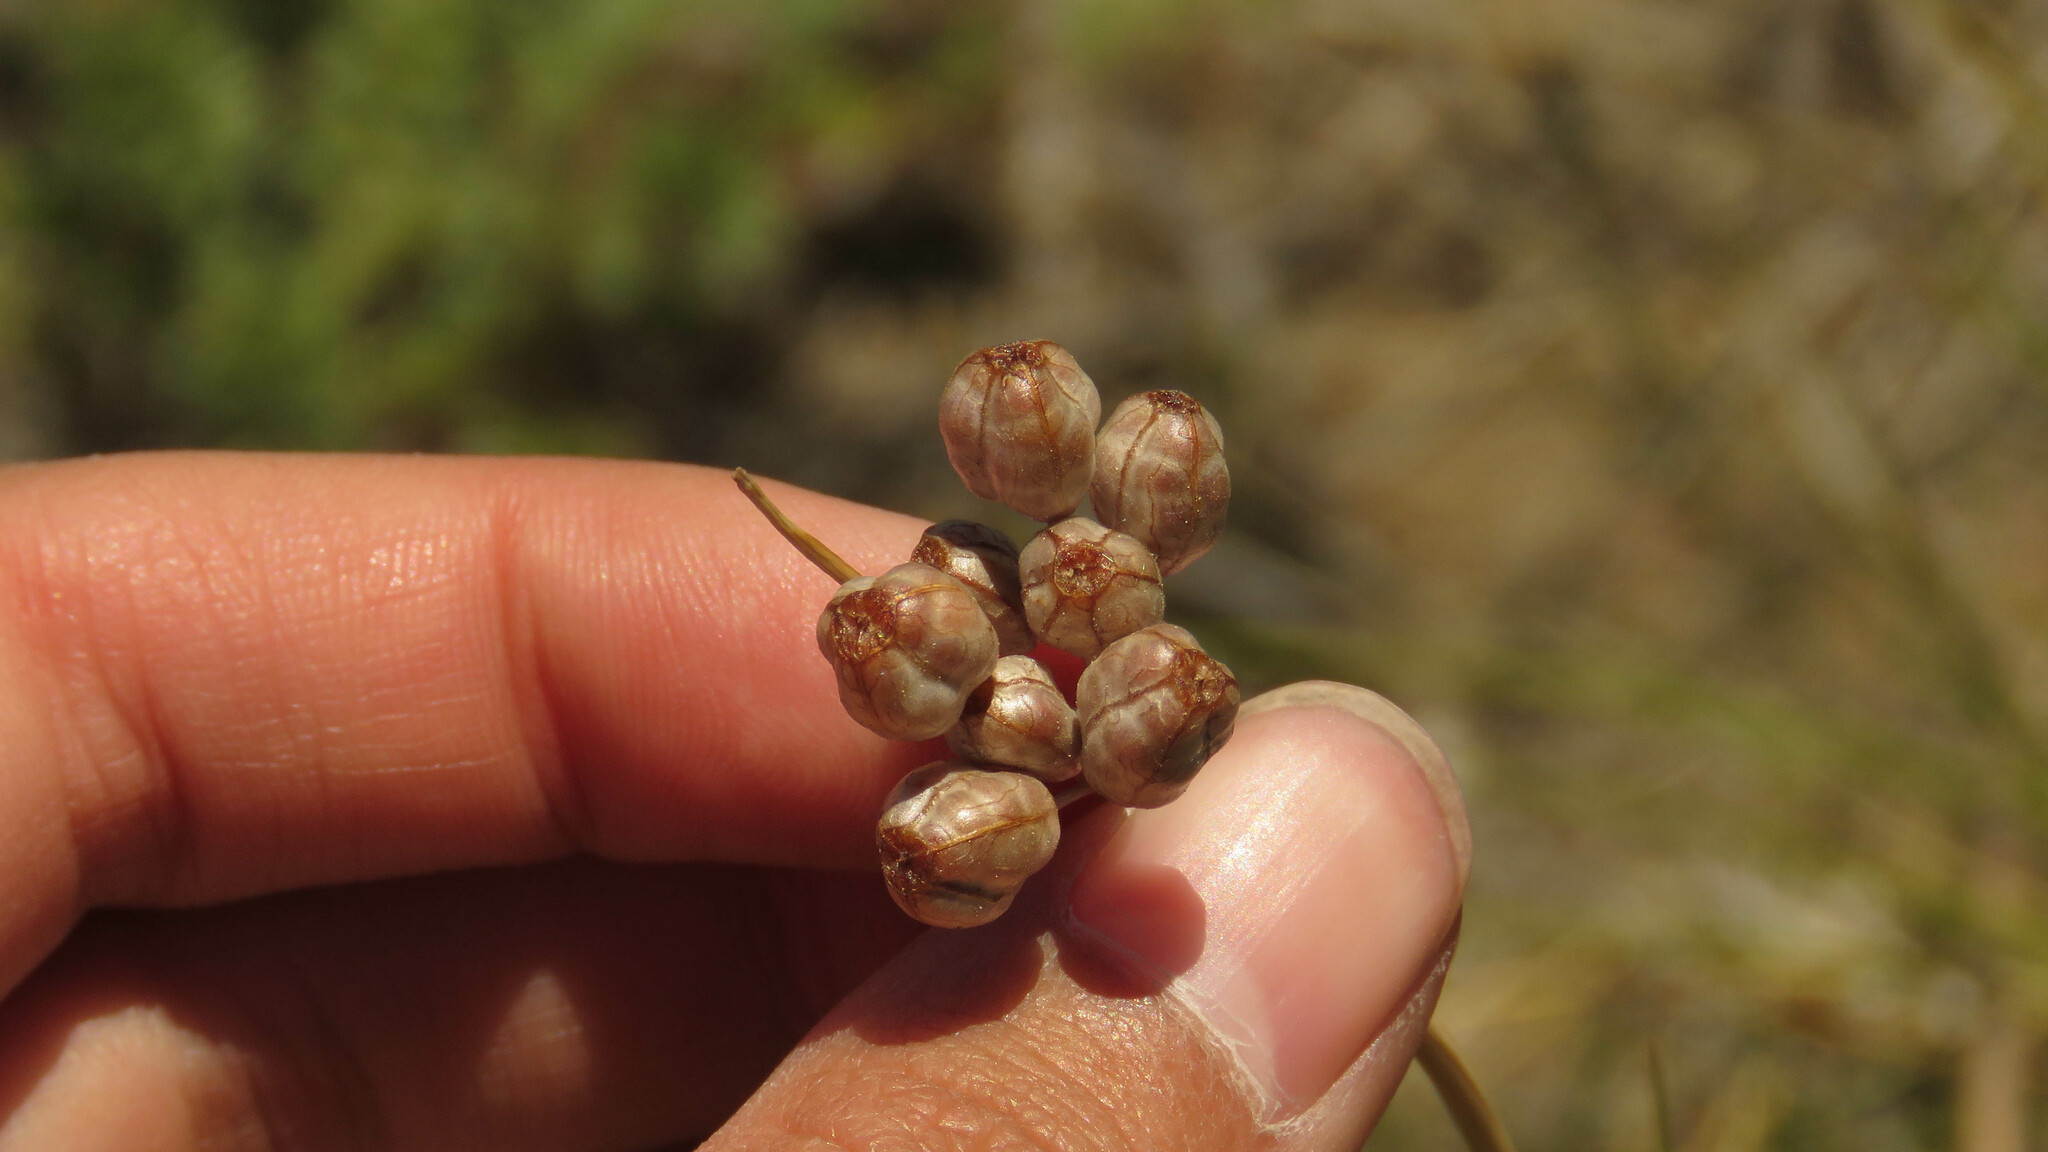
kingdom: Plantae
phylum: Tracheophyta
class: Liliopsida
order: Asparagales
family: Iridaceae
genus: Olsynium
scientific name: Olsynium junceum
